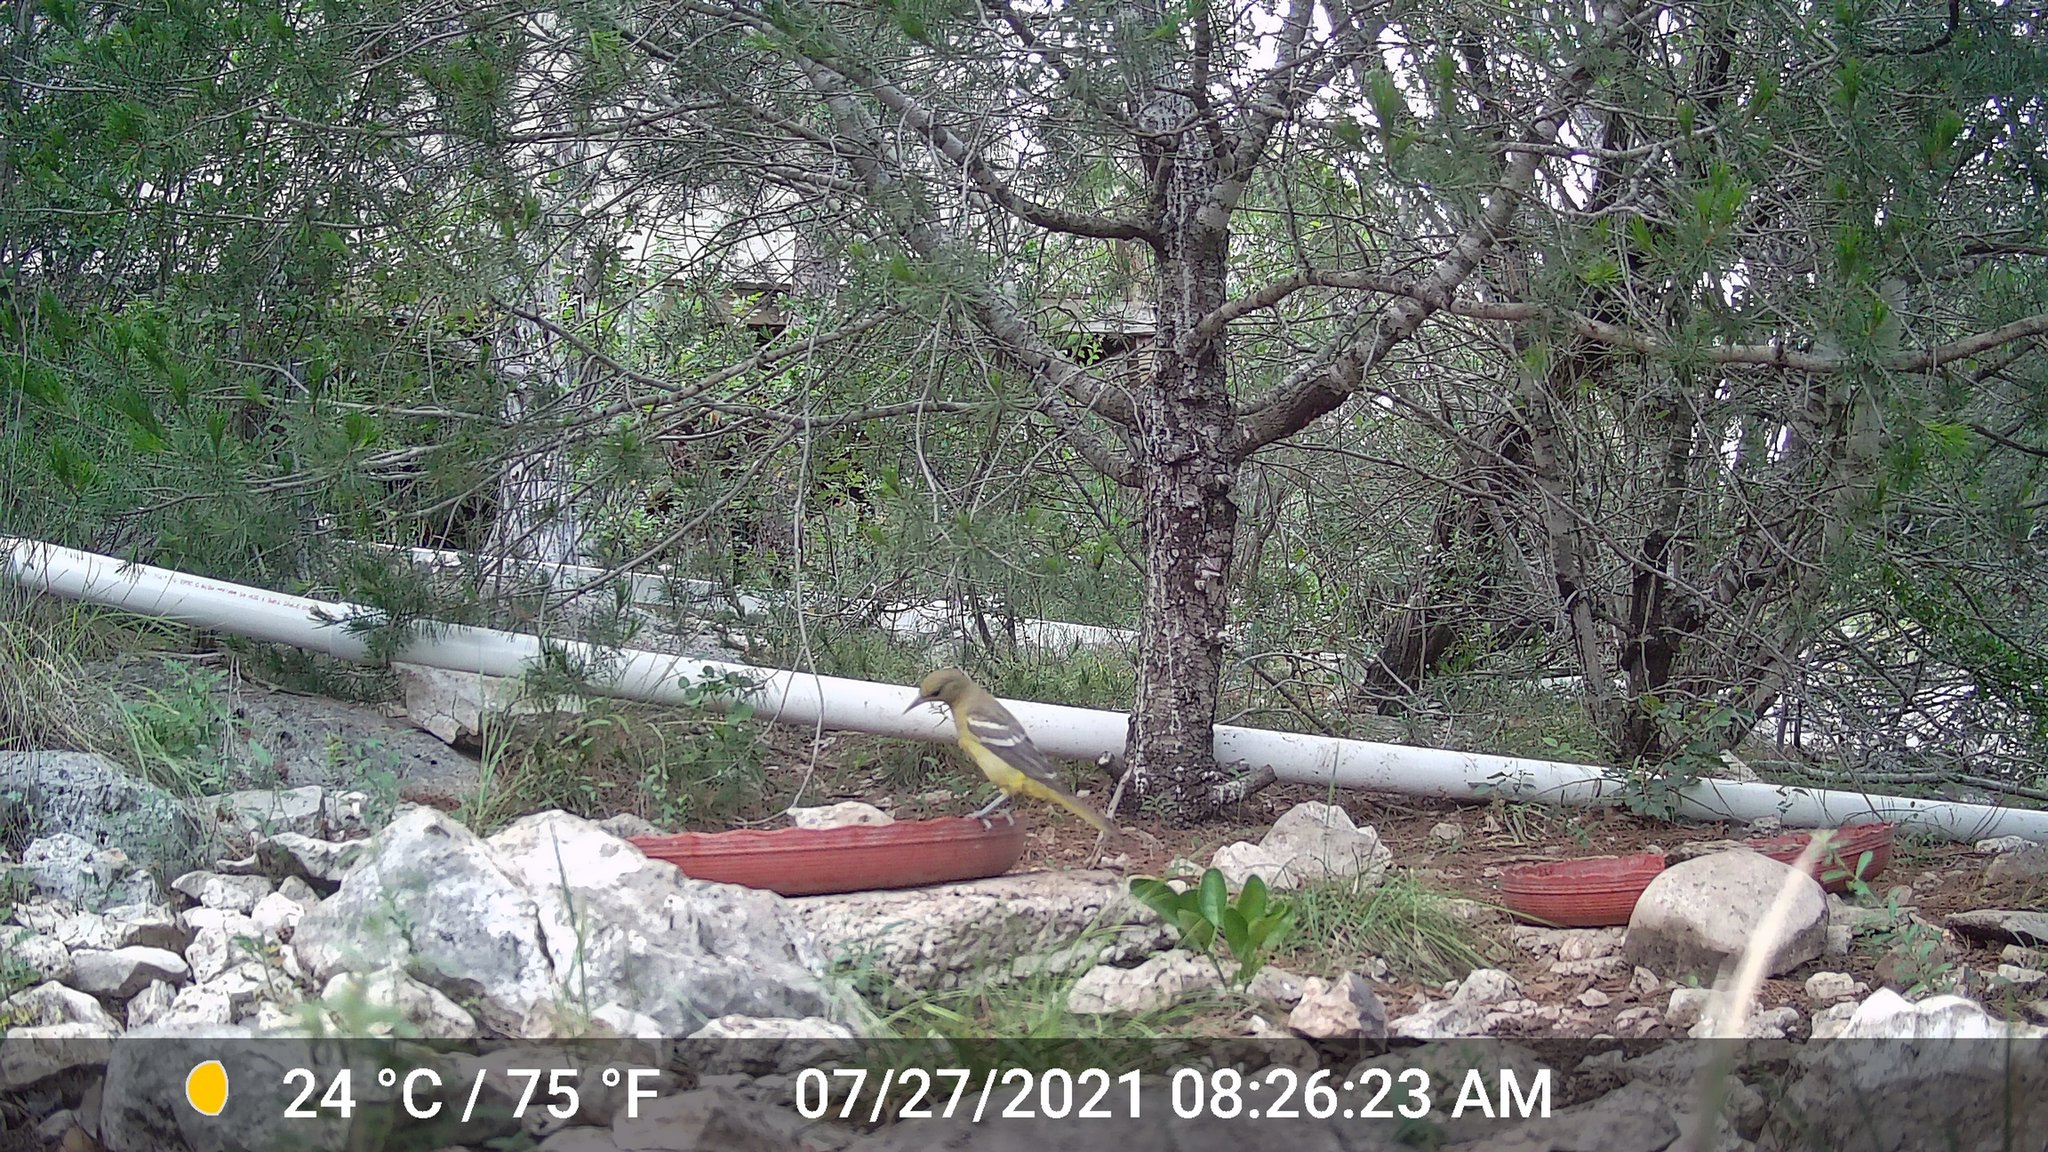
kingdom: Animalia
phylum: Chordata
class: Aves
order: Passeriformes
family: Icteridae
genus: Icterus
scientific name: Icterus parisorum
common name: Scott's oriole
